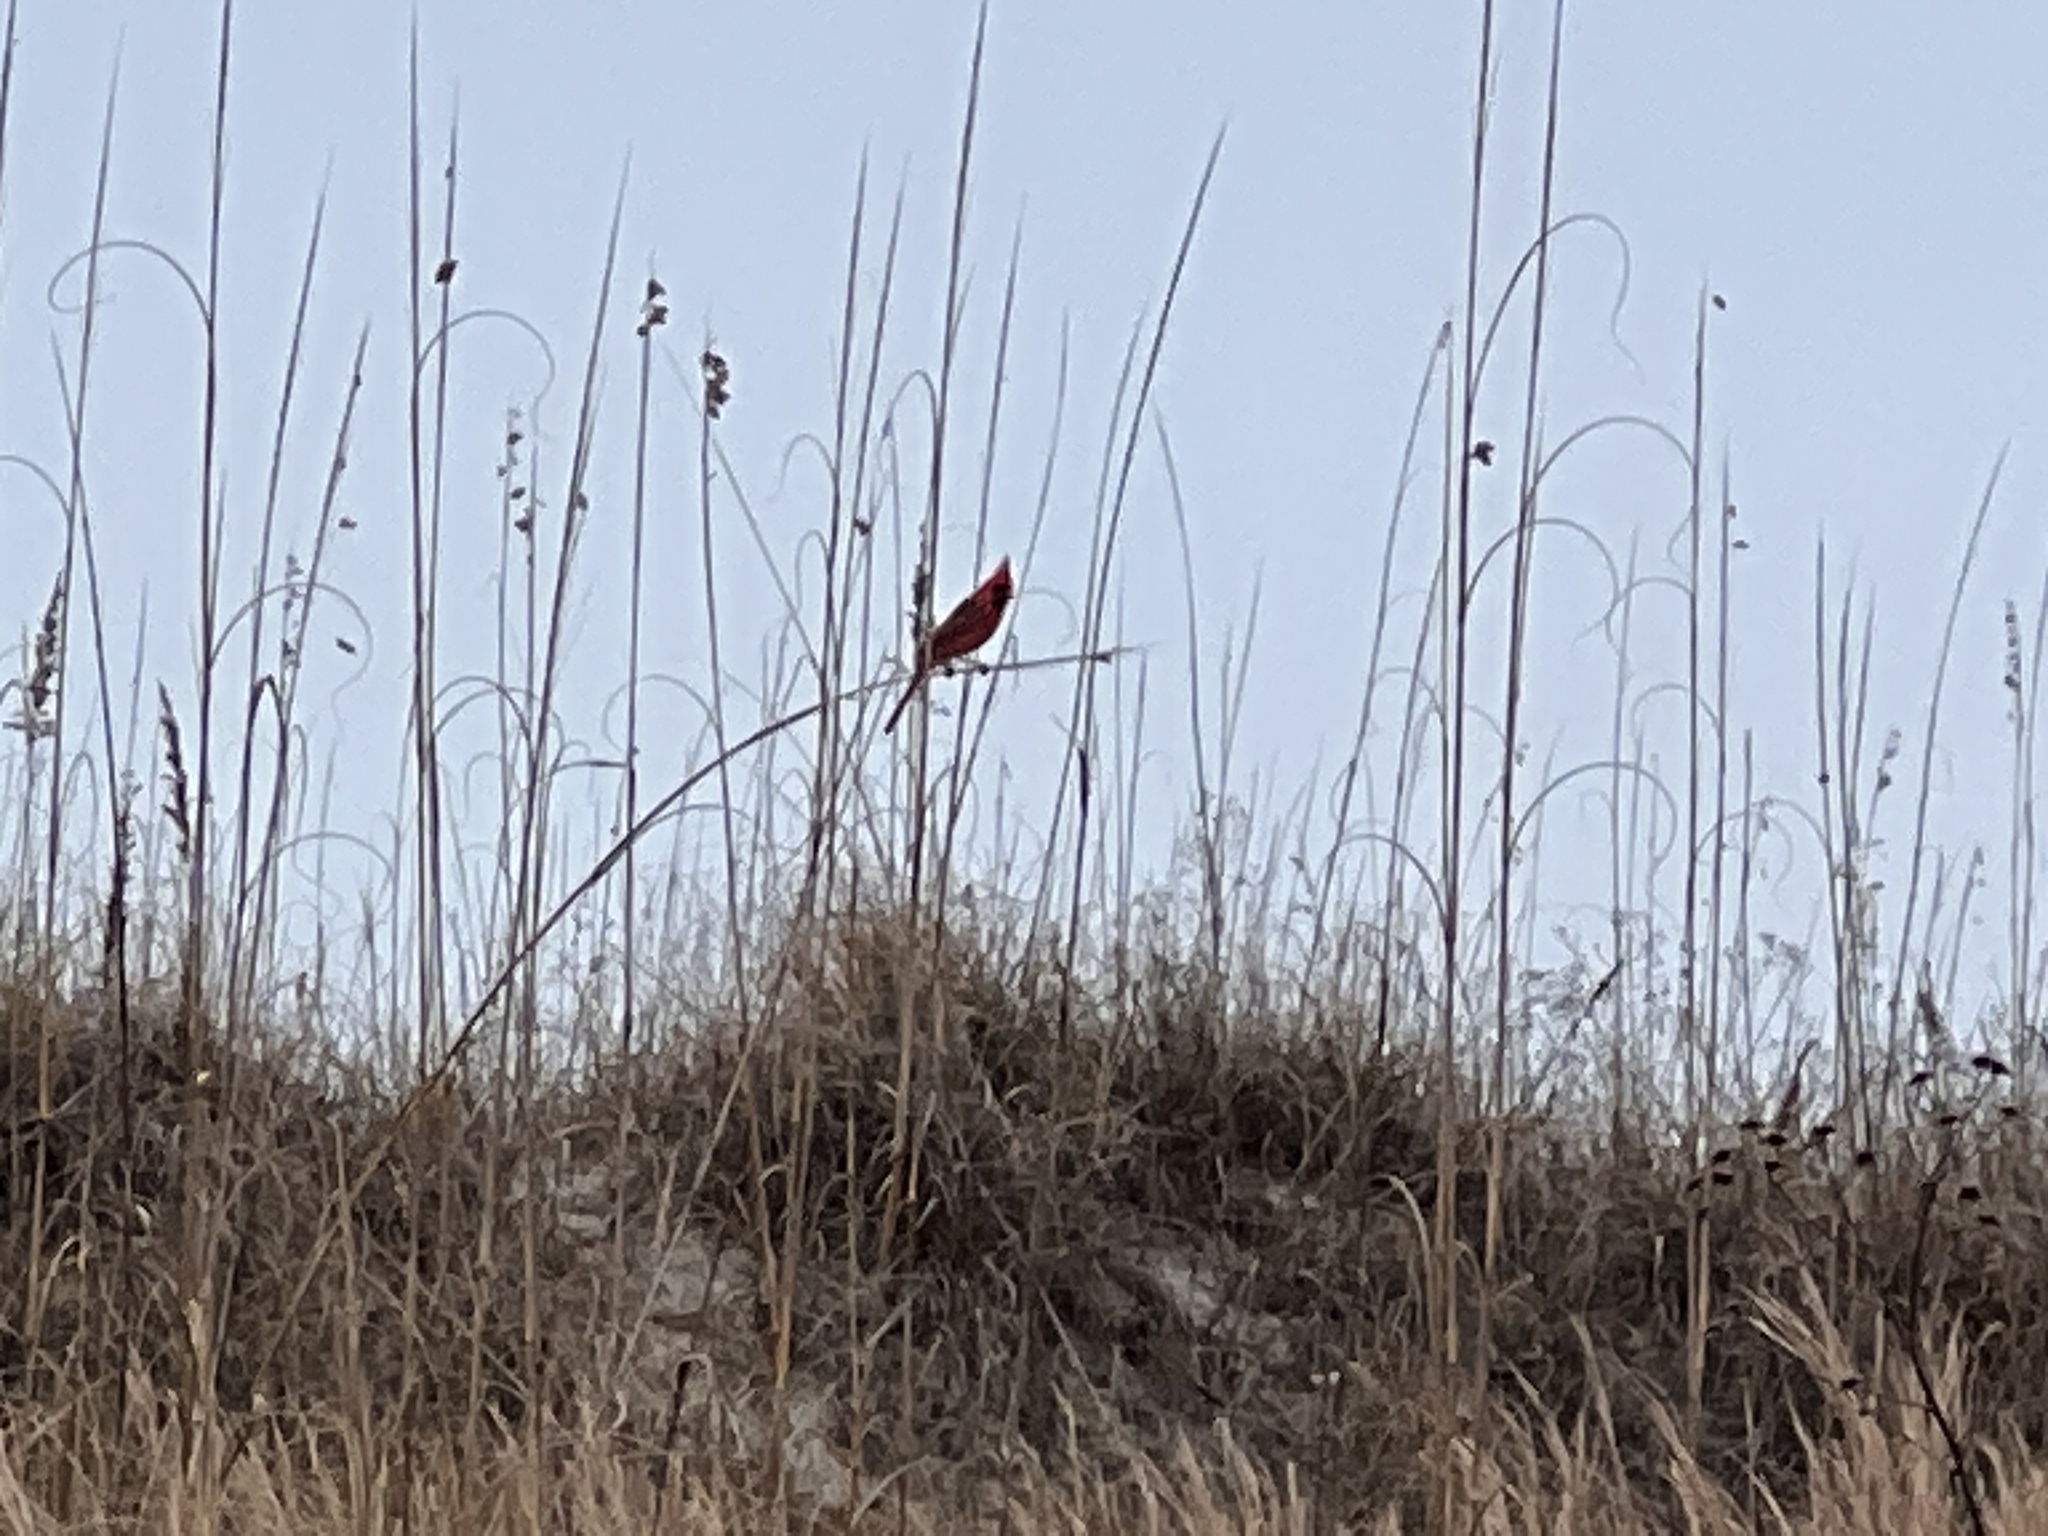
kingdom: Animalia
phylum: Chordata
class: Aves
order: Passeriformes
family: Cardinalidae
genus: Cardinalis
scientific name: Cardinalis cardinalis
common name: Northern cardinal
